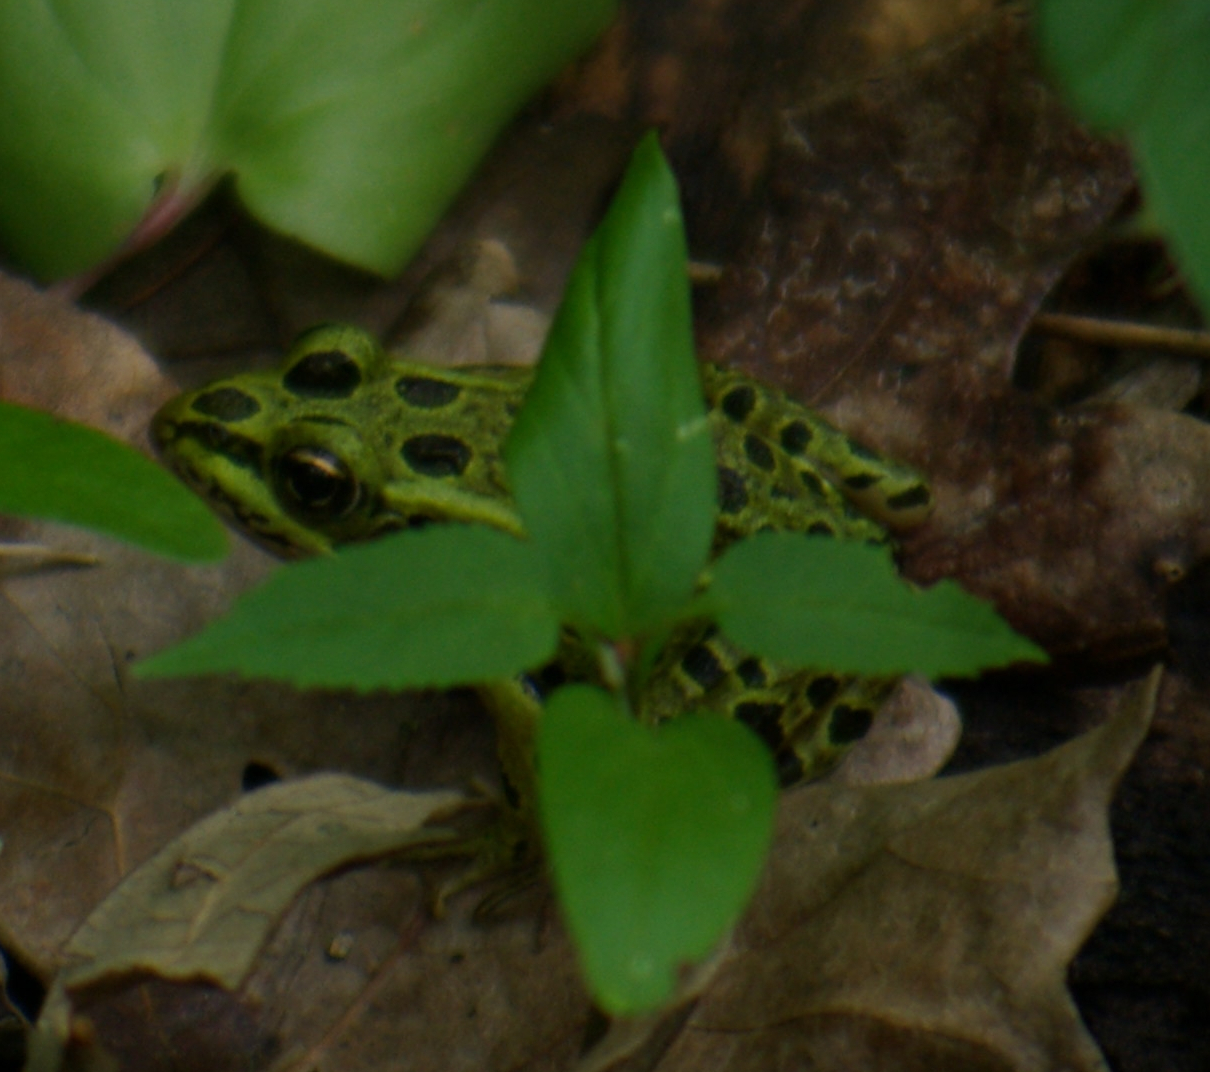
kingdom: Animalia
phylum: Chordata
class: Amphibia
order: Anura
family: Ranidae
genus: Lithobates
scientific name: Lithobates pipiens
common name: Northern leopard frog
